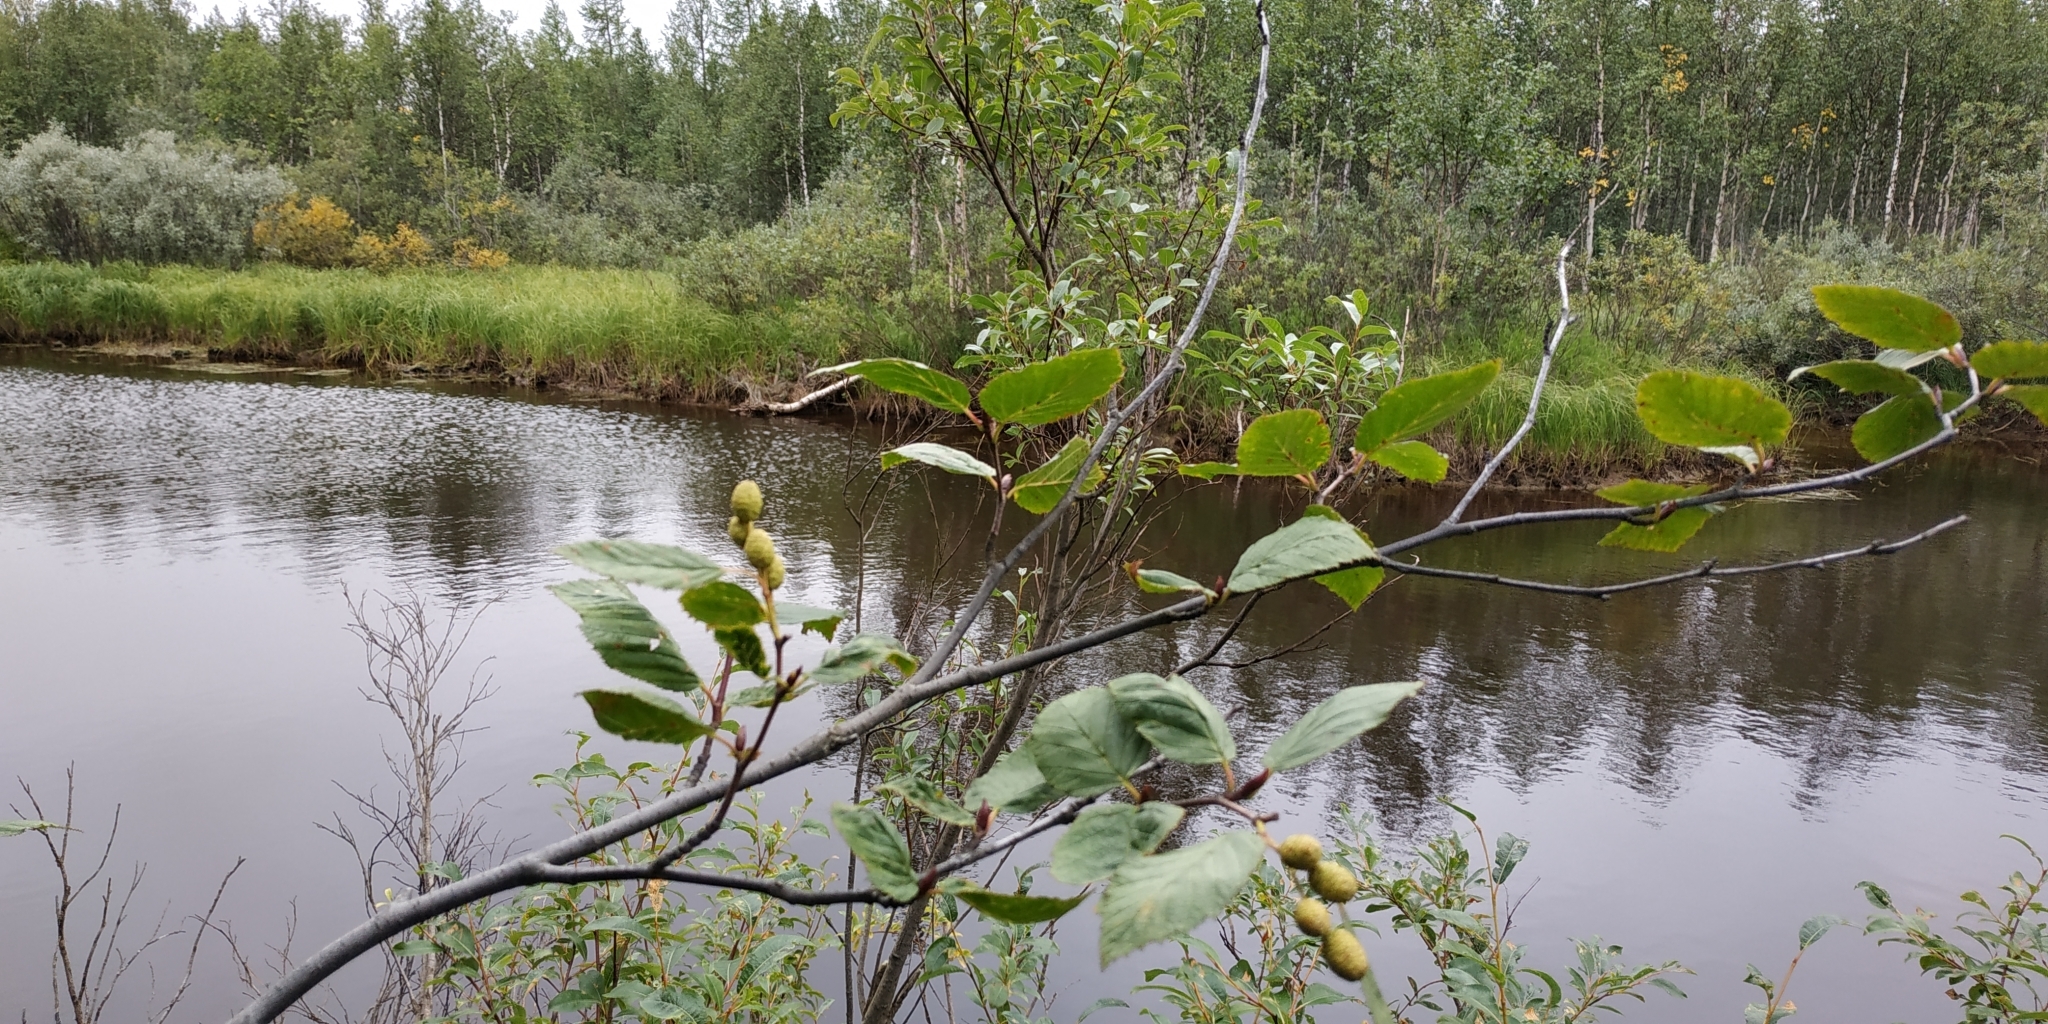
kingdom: Plantae
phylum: Tracheophyta
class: Magnoliopsida
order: Fagales
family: Betulaceae
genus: Alnus
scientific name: Alnus alnobetula
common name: Green alder
